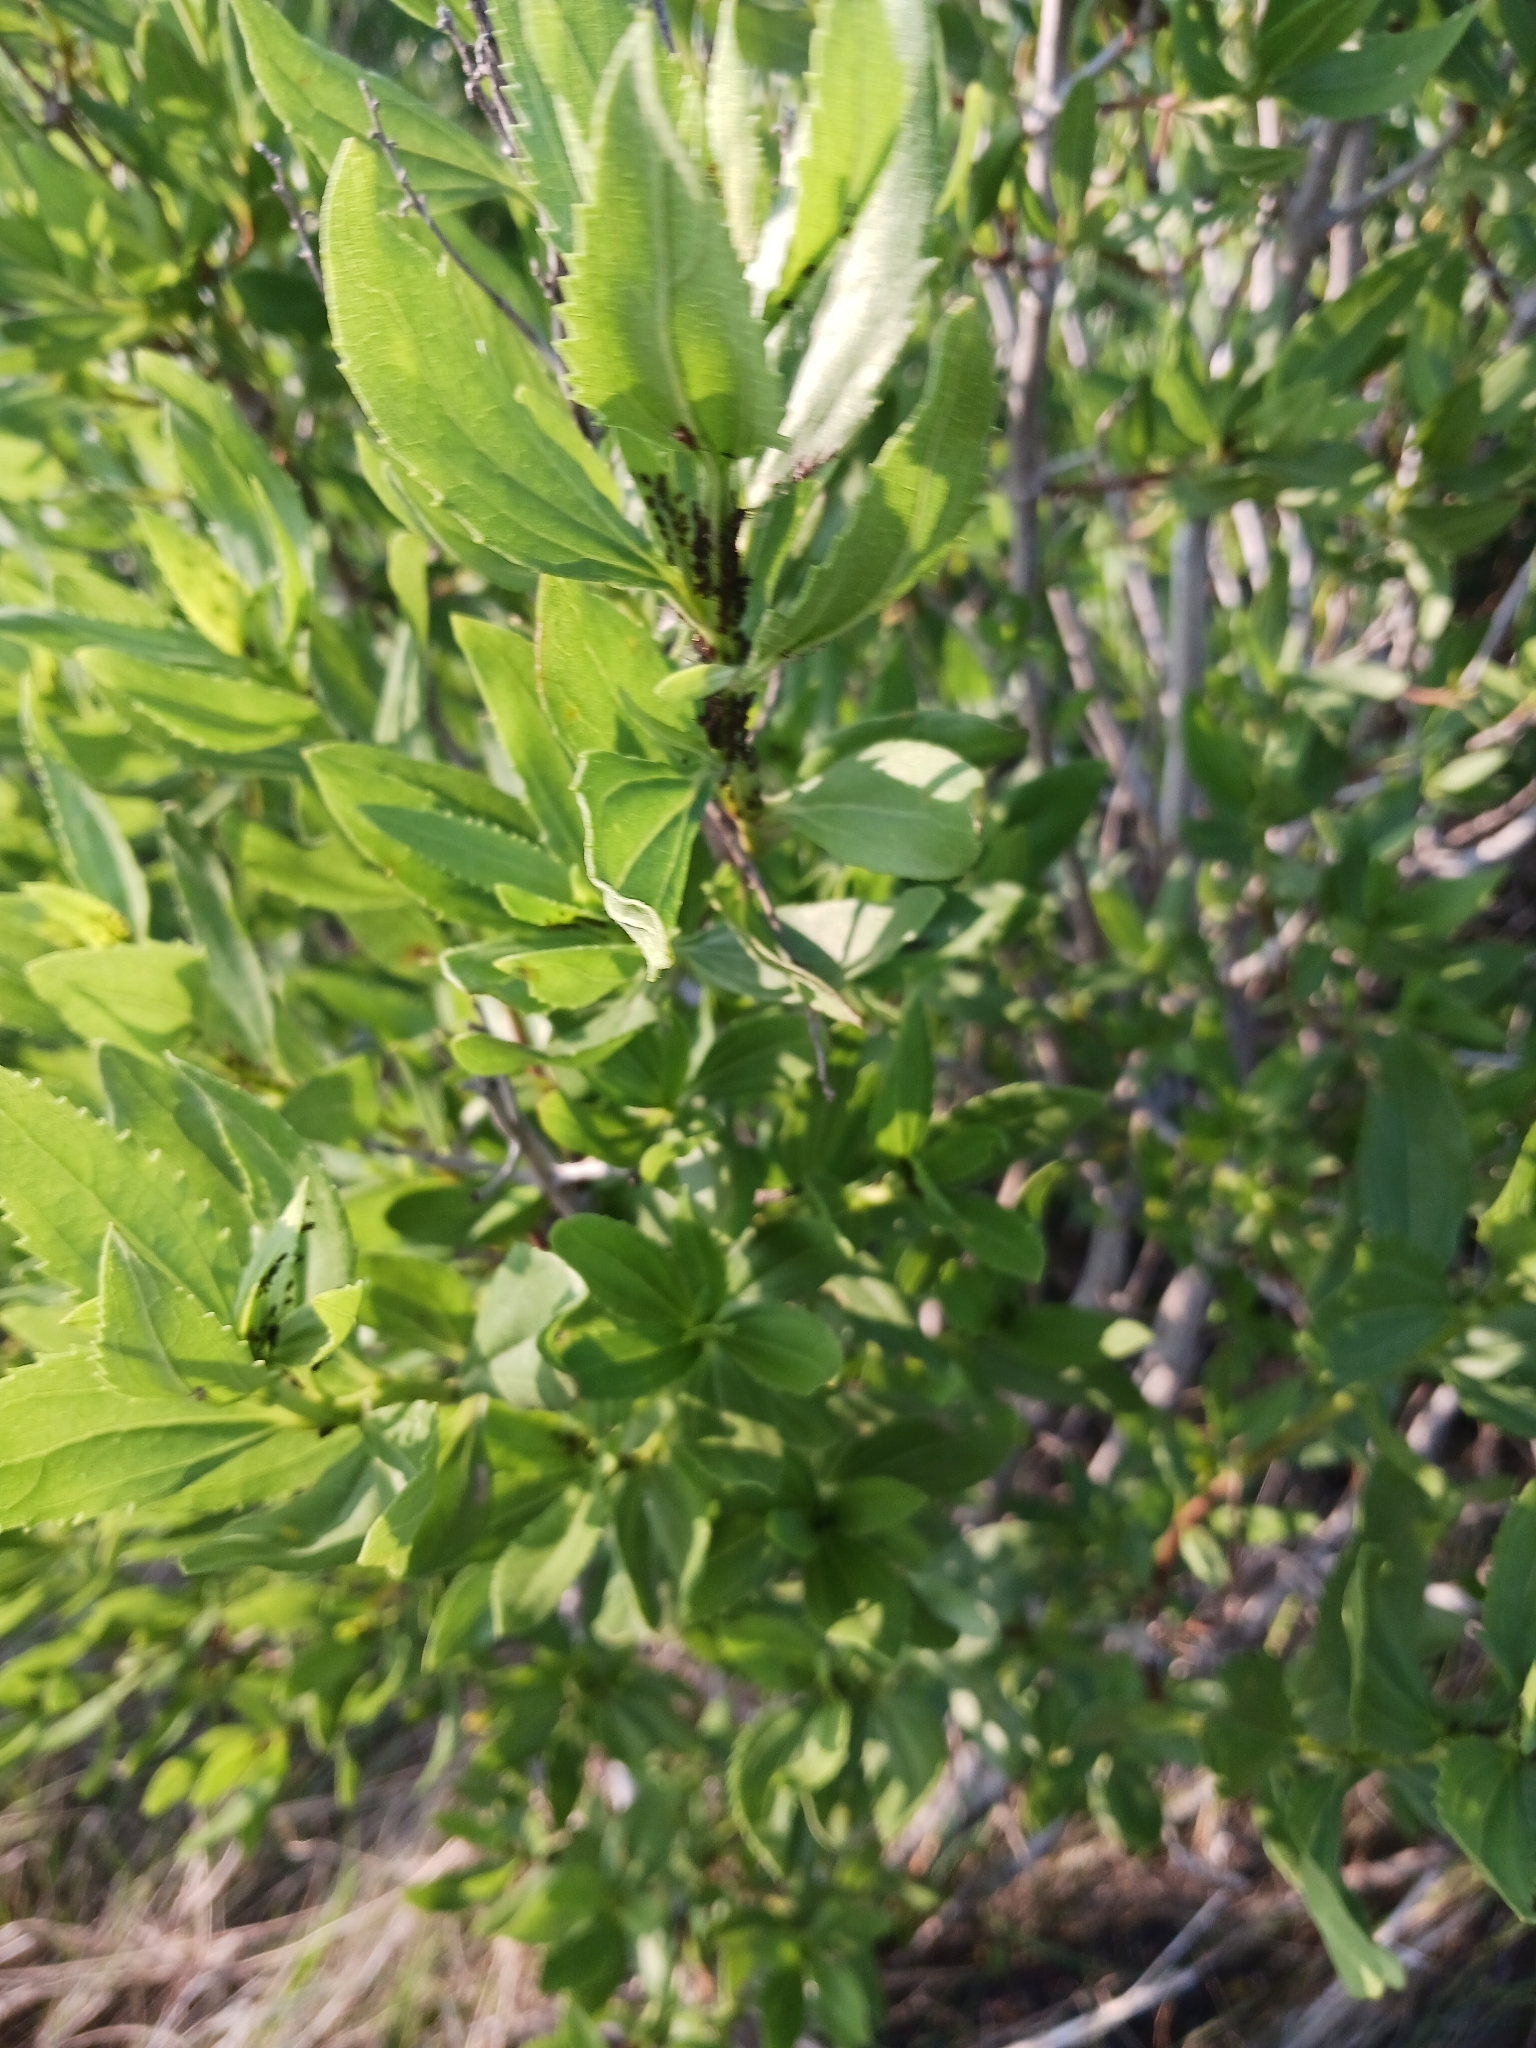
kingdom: Plantae
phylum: Tracheophyta
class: Magnoliopsida
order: Asterales
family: Asteraceae
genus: Iva
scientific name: Iva frutescens
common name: Big-leaved marsh-elder
